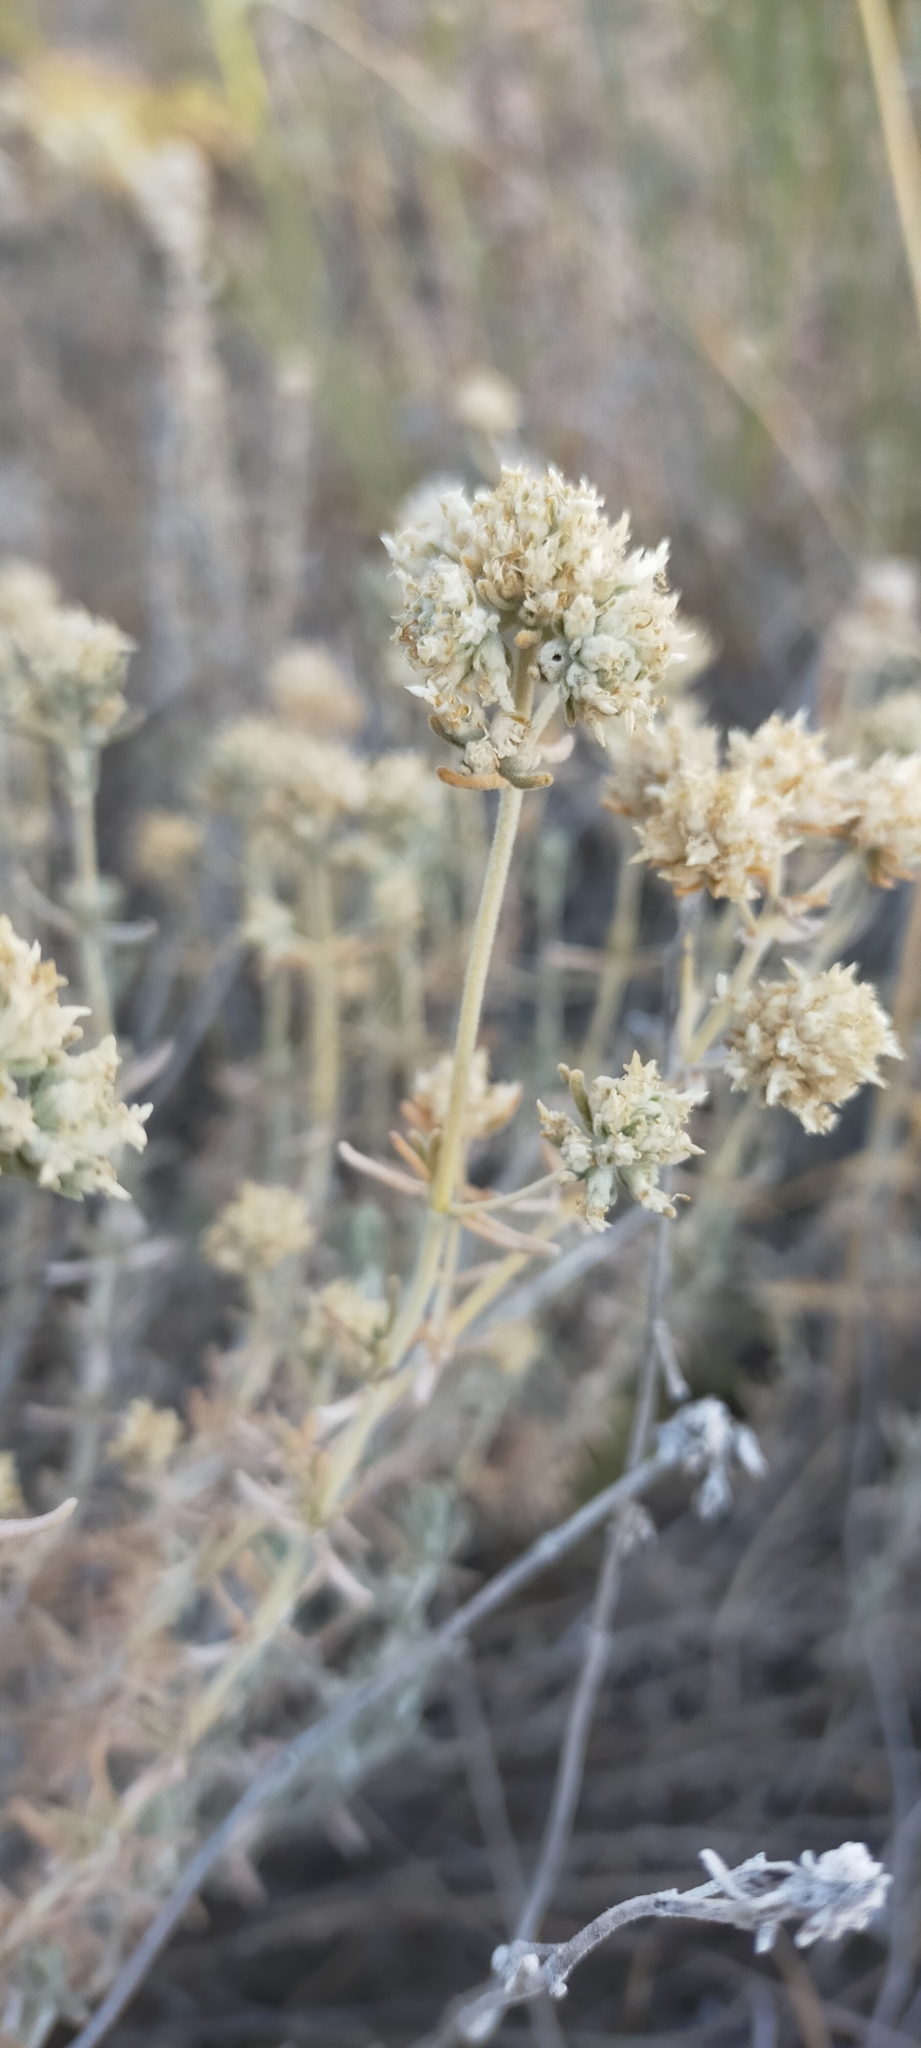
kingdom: Plantae
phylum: Tracheophyta
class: Magnoliopsida
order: Lamiales
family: Lamiaceae
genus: Teucrium
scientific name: Teucrium capitatum
